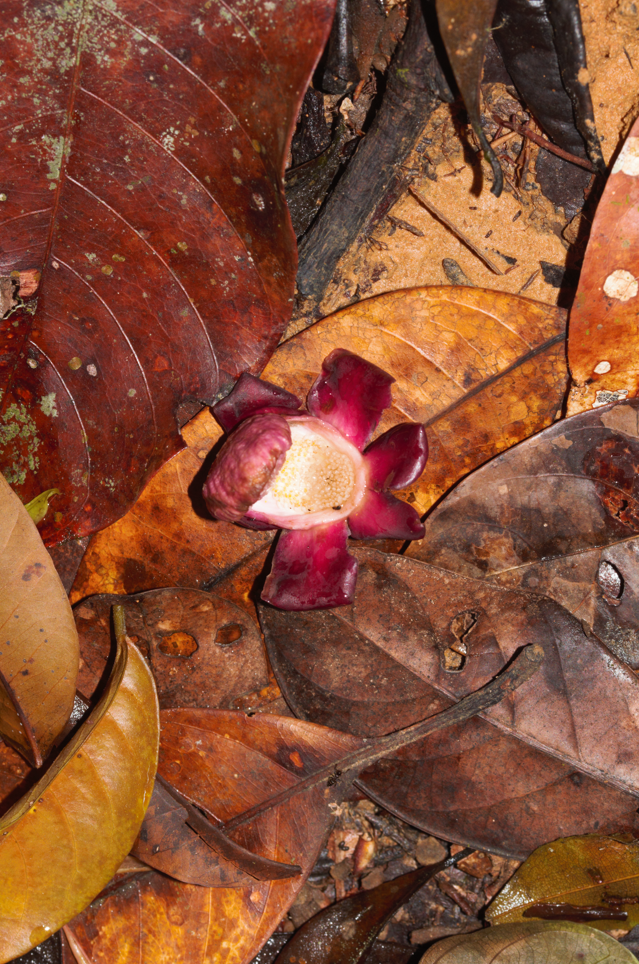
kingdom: Plantae
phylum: Tracheophyta
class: Magnoliopsida
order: Ericales
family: Lecythidaceae
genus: Corythophora
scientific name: Corythophora amapaensis
